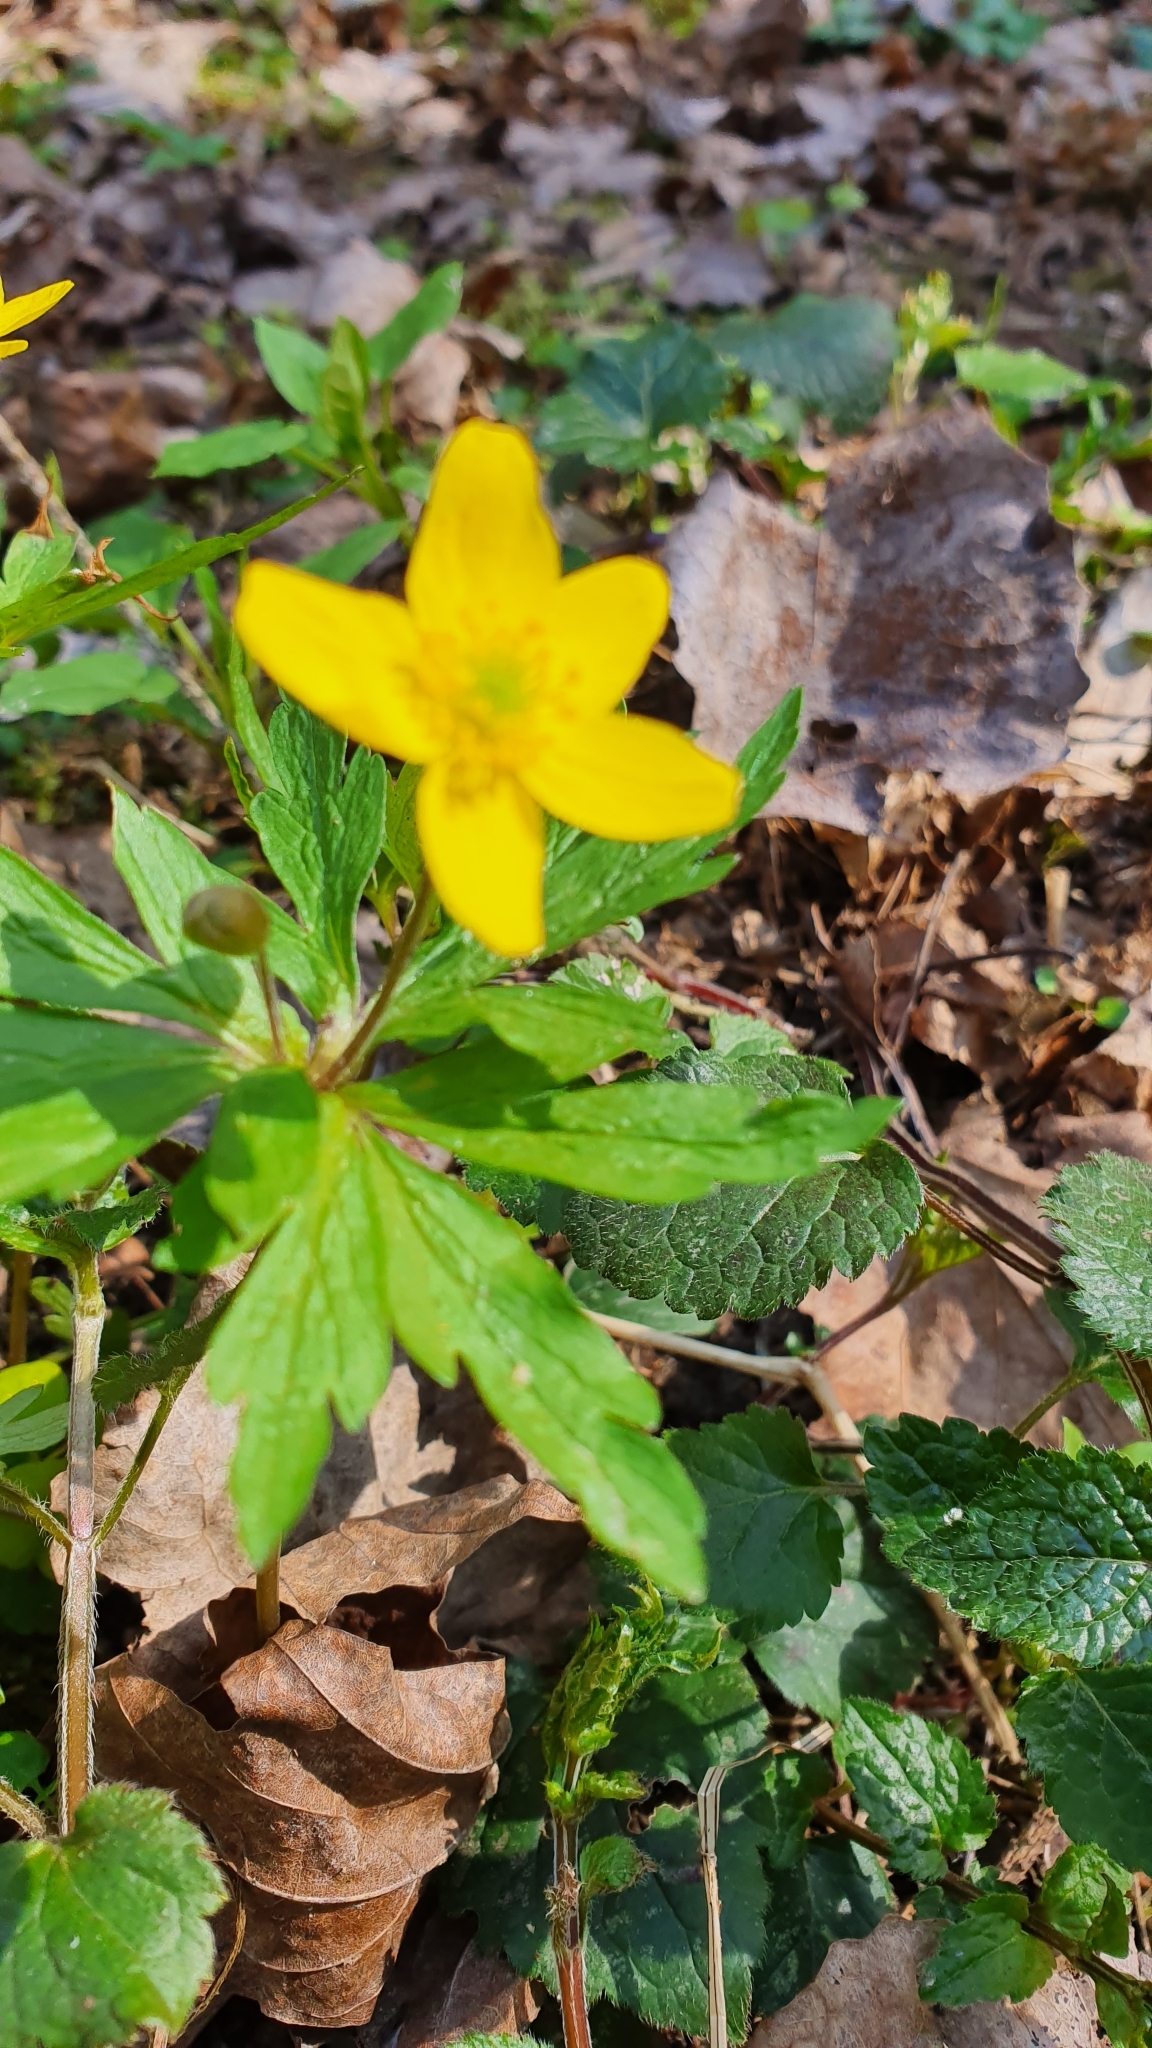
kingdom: Plantae
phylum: Tracheophyta
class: Magnoliopsida
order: Ranunculales
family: Ranunculaceae
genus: Anemone
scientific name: Anemone ranunculoides
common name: Yellow anemone
